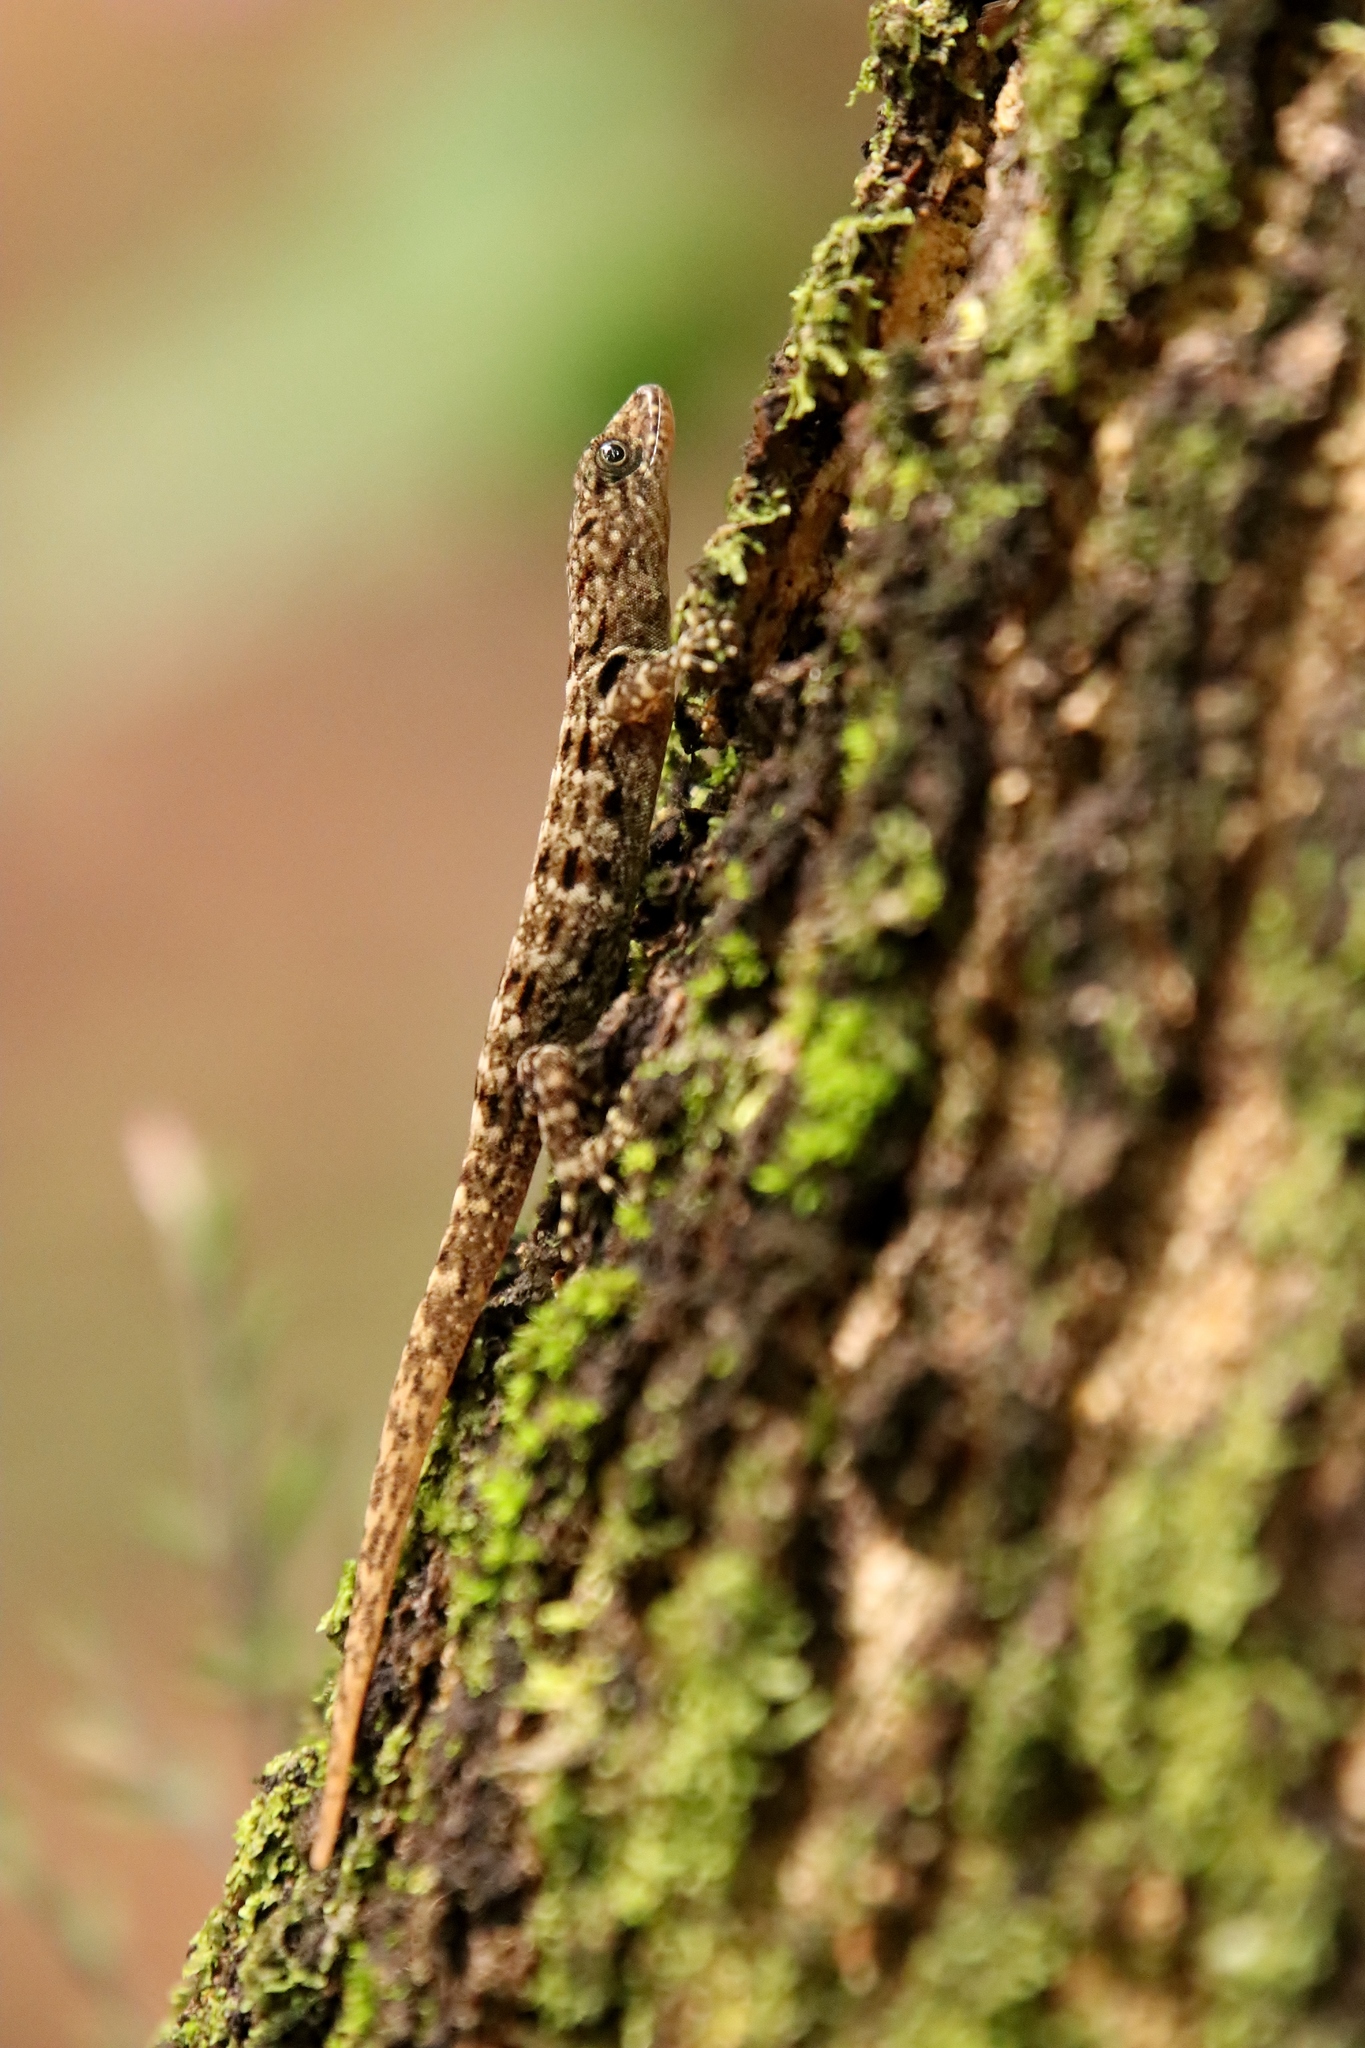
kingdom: Animalia
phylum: Chordata
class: Squamata
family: Sphaerodactylidae
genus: Gonatodes
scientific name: Gonatodes albogularis
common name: Yellow-headed gecko
